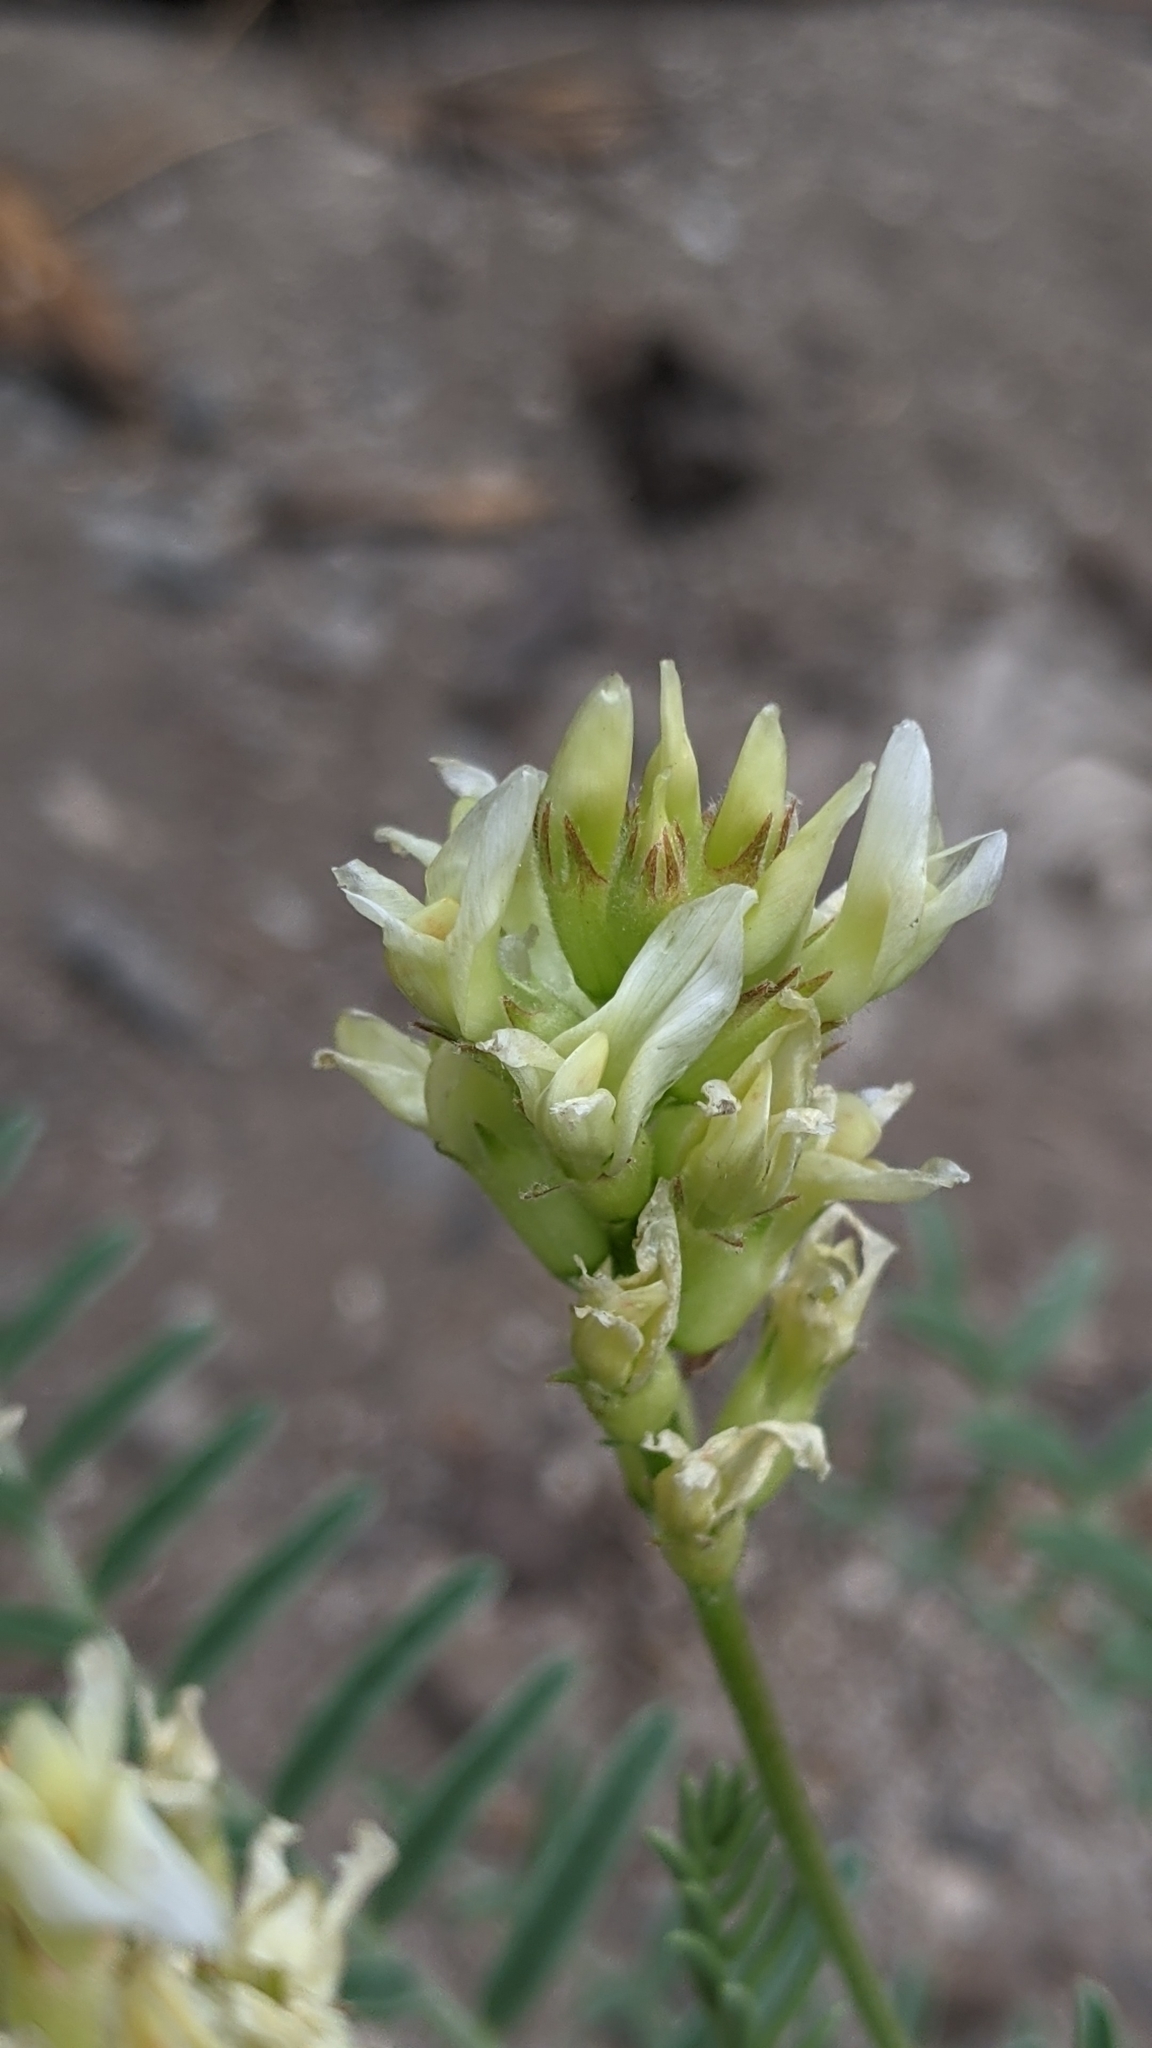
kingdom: Plantae
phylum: Tracheophyta
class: Magnoliopsida
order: Fabales
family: Fabaceae
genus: Astragalus
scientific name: Astragalus bolanderi
